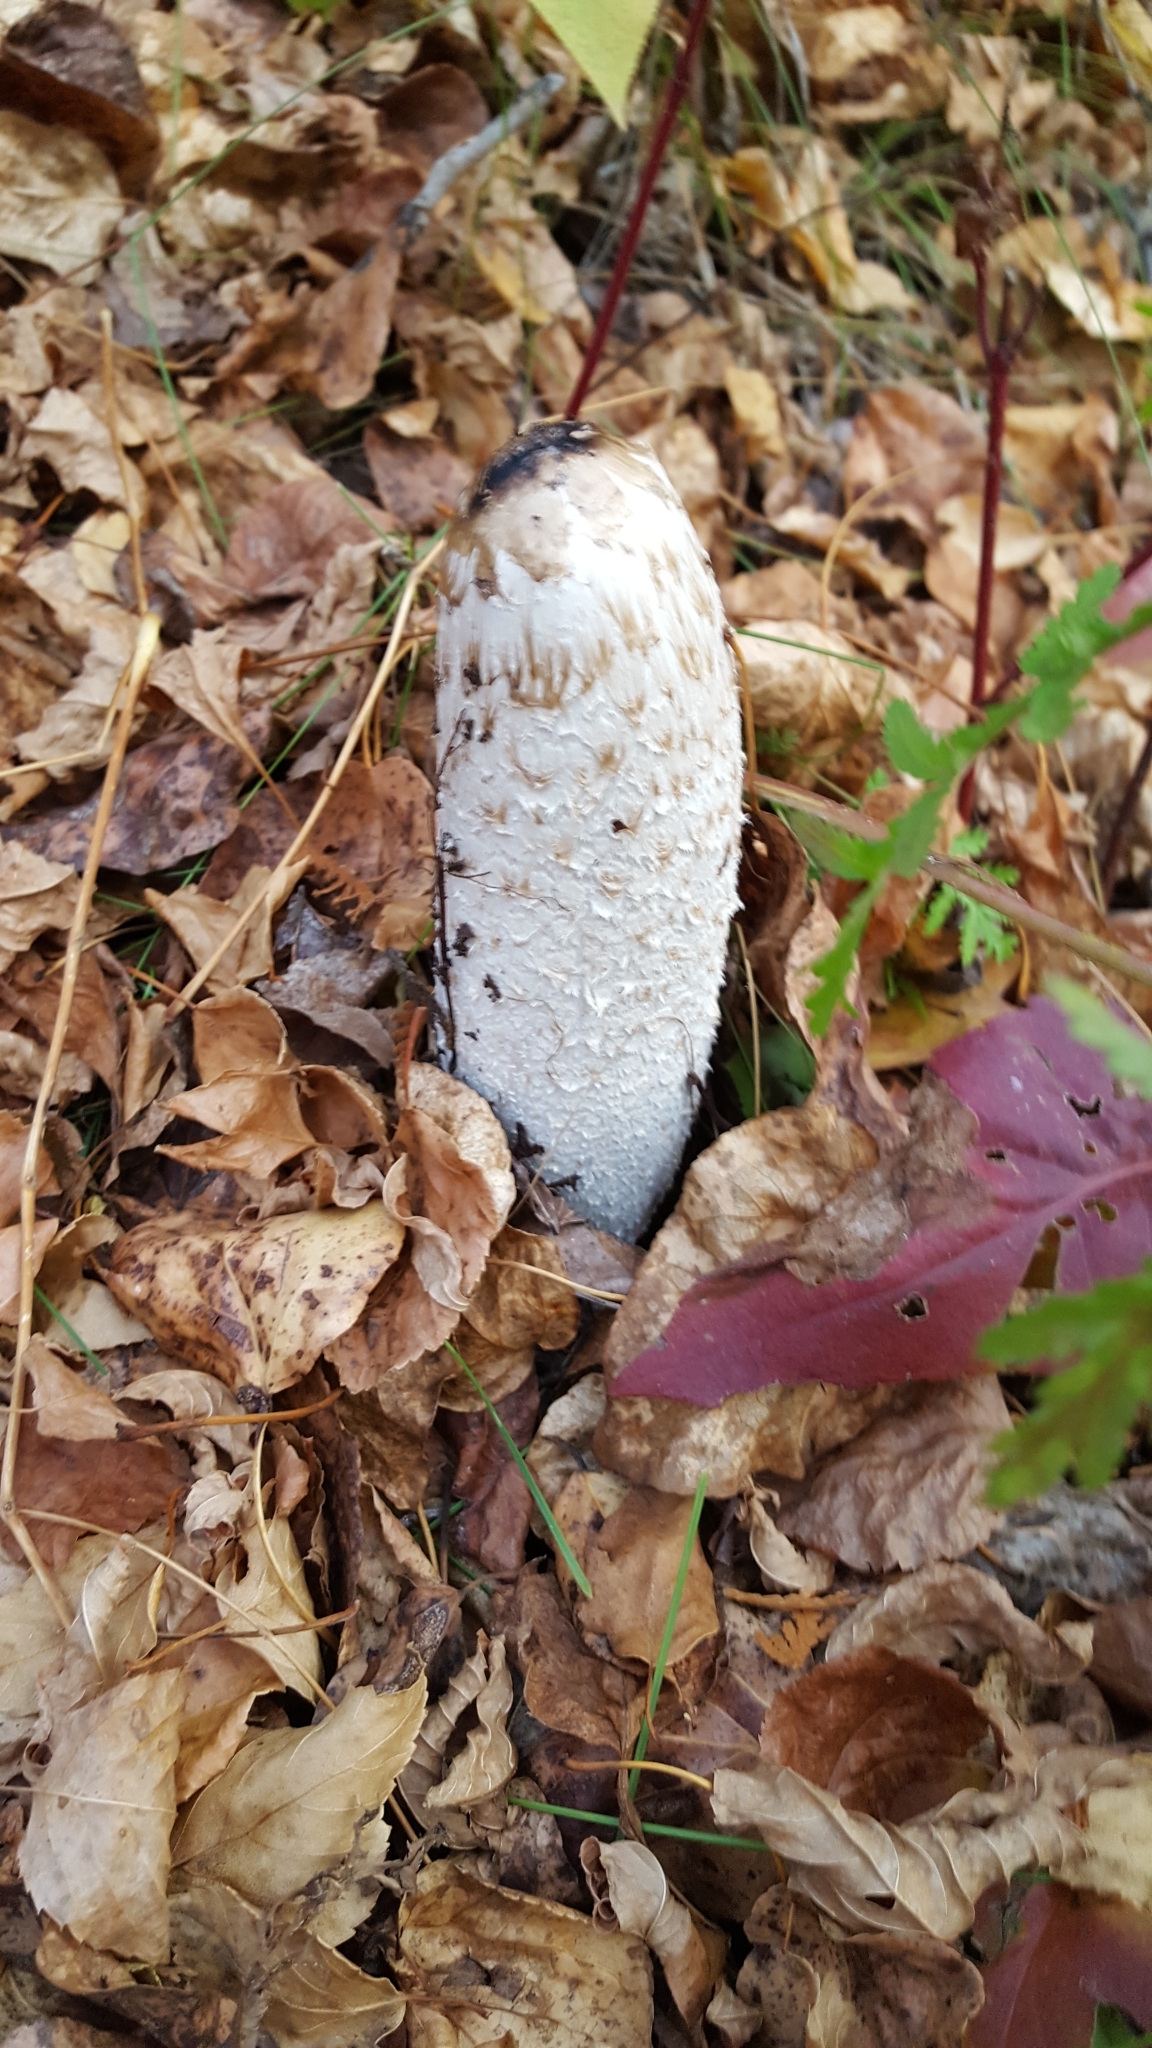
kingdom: Fungi
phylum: Basidiomycota
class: Agaricomycetes
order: Agaricales
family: Agaricaceae
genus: Coprinus
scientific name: Coprinus comatus
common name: Lawyer's wig
